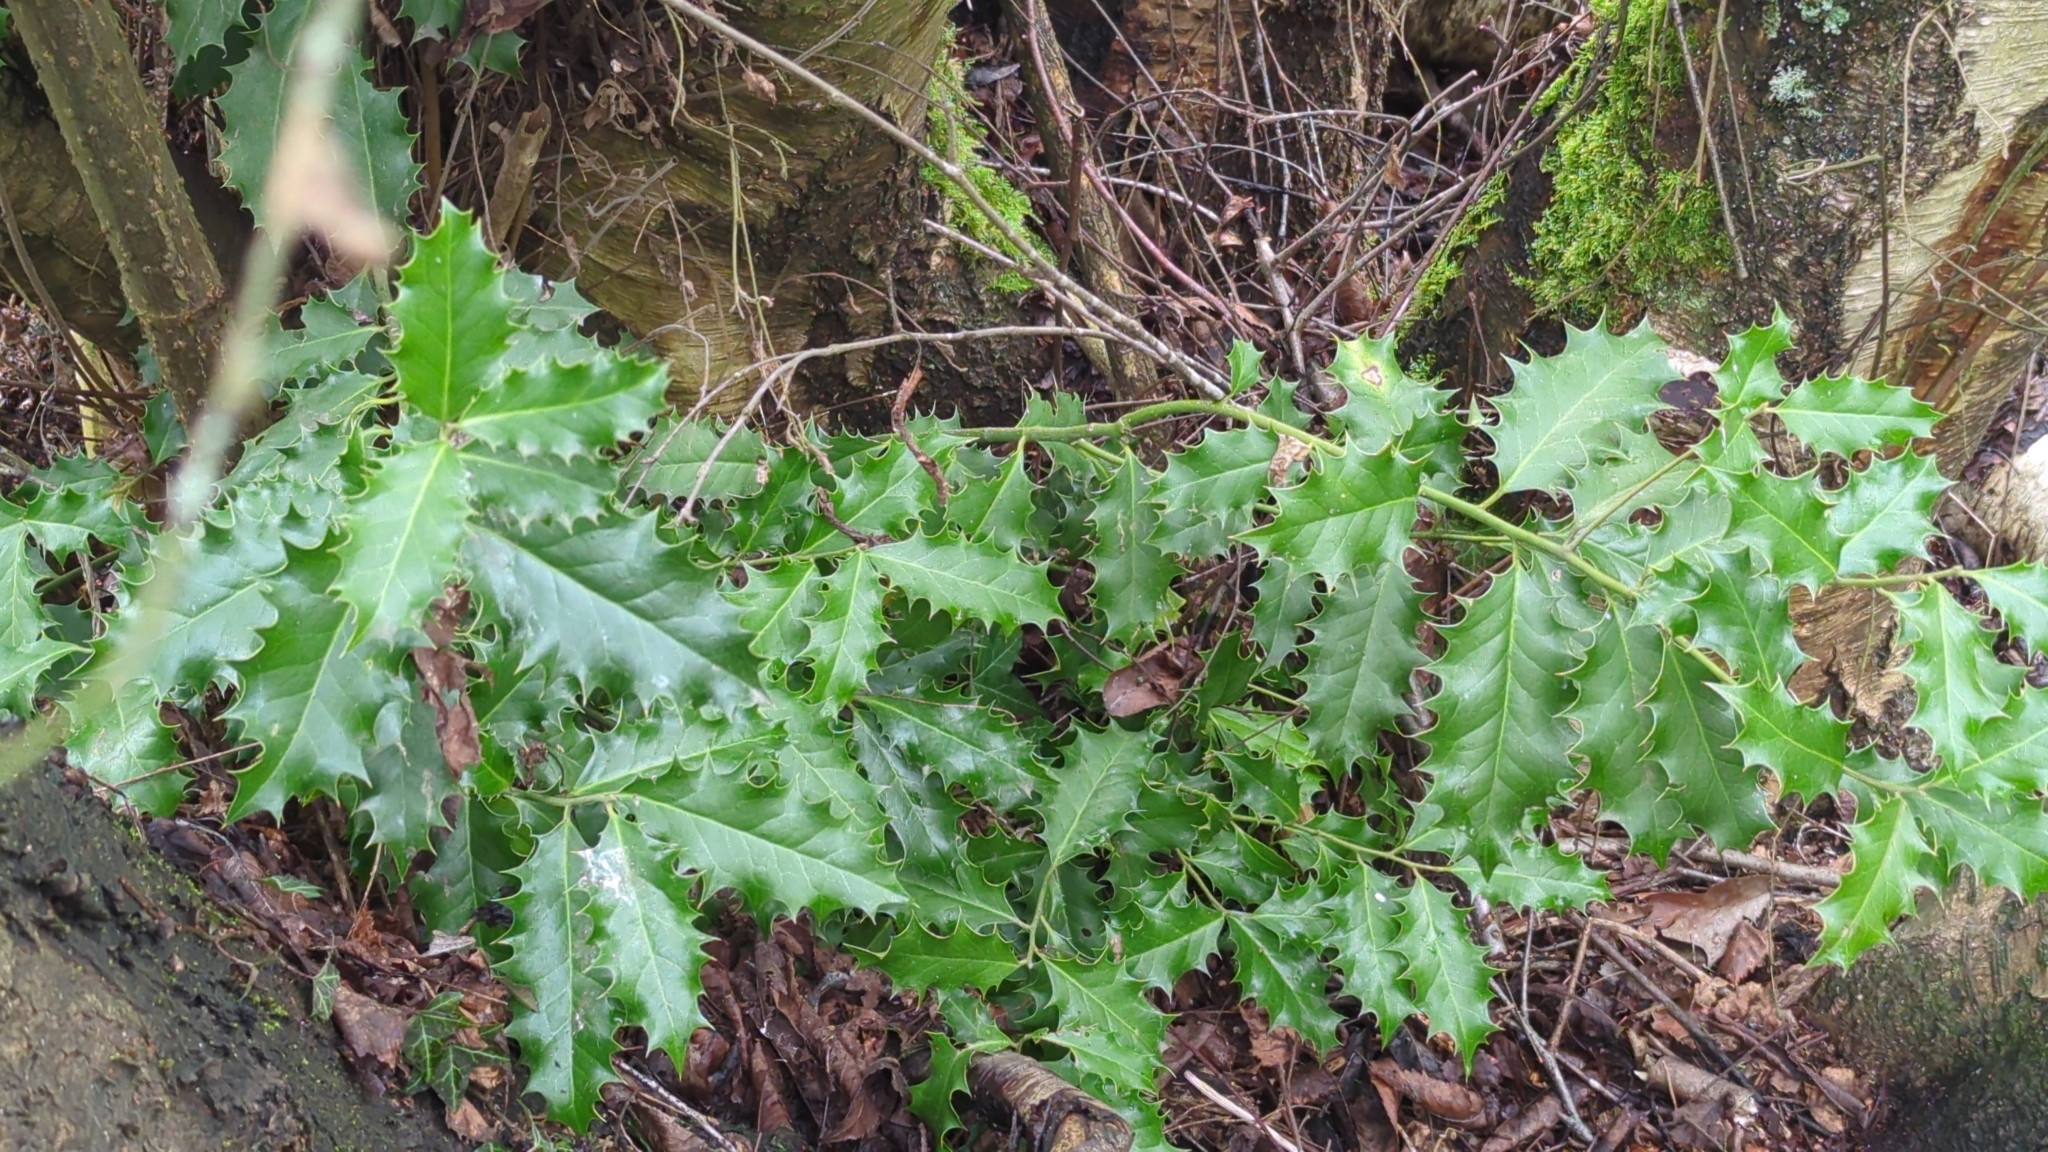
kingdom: Plantae
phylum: Tracheophyta
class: Magnoliopsida
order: Aquifoliales
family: Aquifoliaceae
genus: Ilex
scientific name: Ilex aquifolium
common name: English holly
